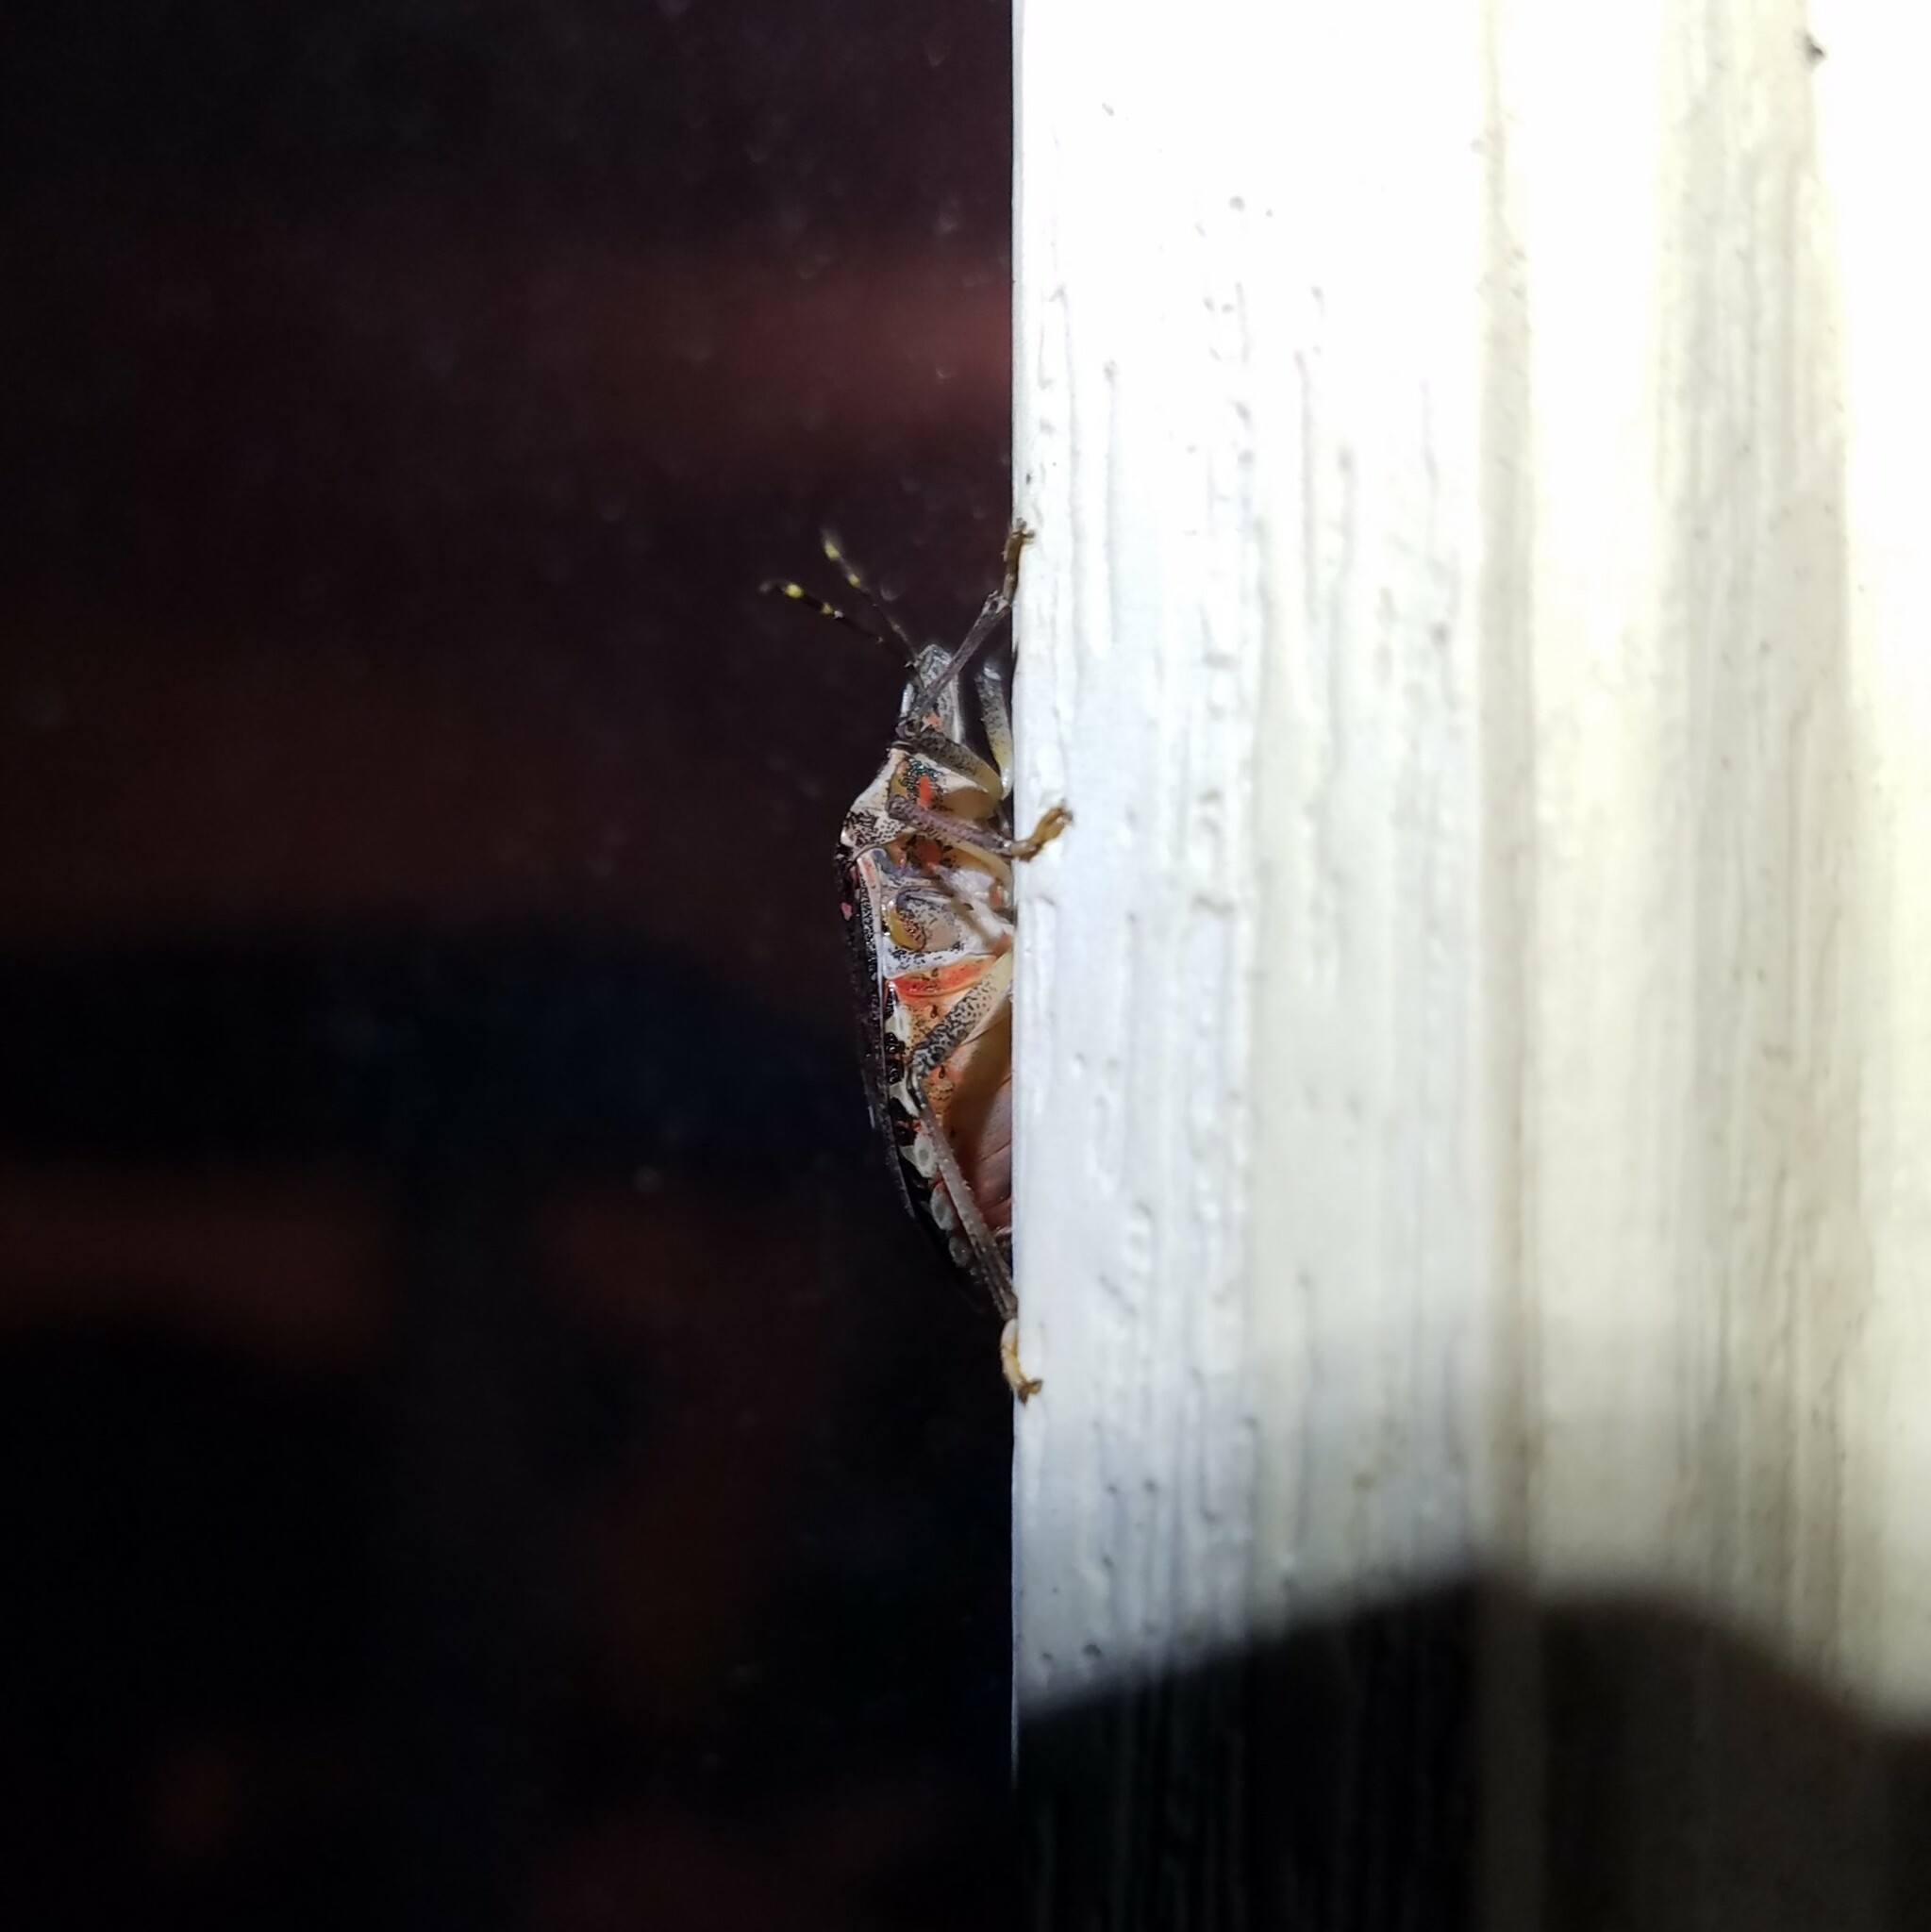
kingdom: Animalia
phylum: Arthropoda
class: Insecta
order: Hemiptera
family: Pentatomidae
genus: Halyomorpha
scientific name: Halyomorpha halys
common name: Brown marmorated stink bug
